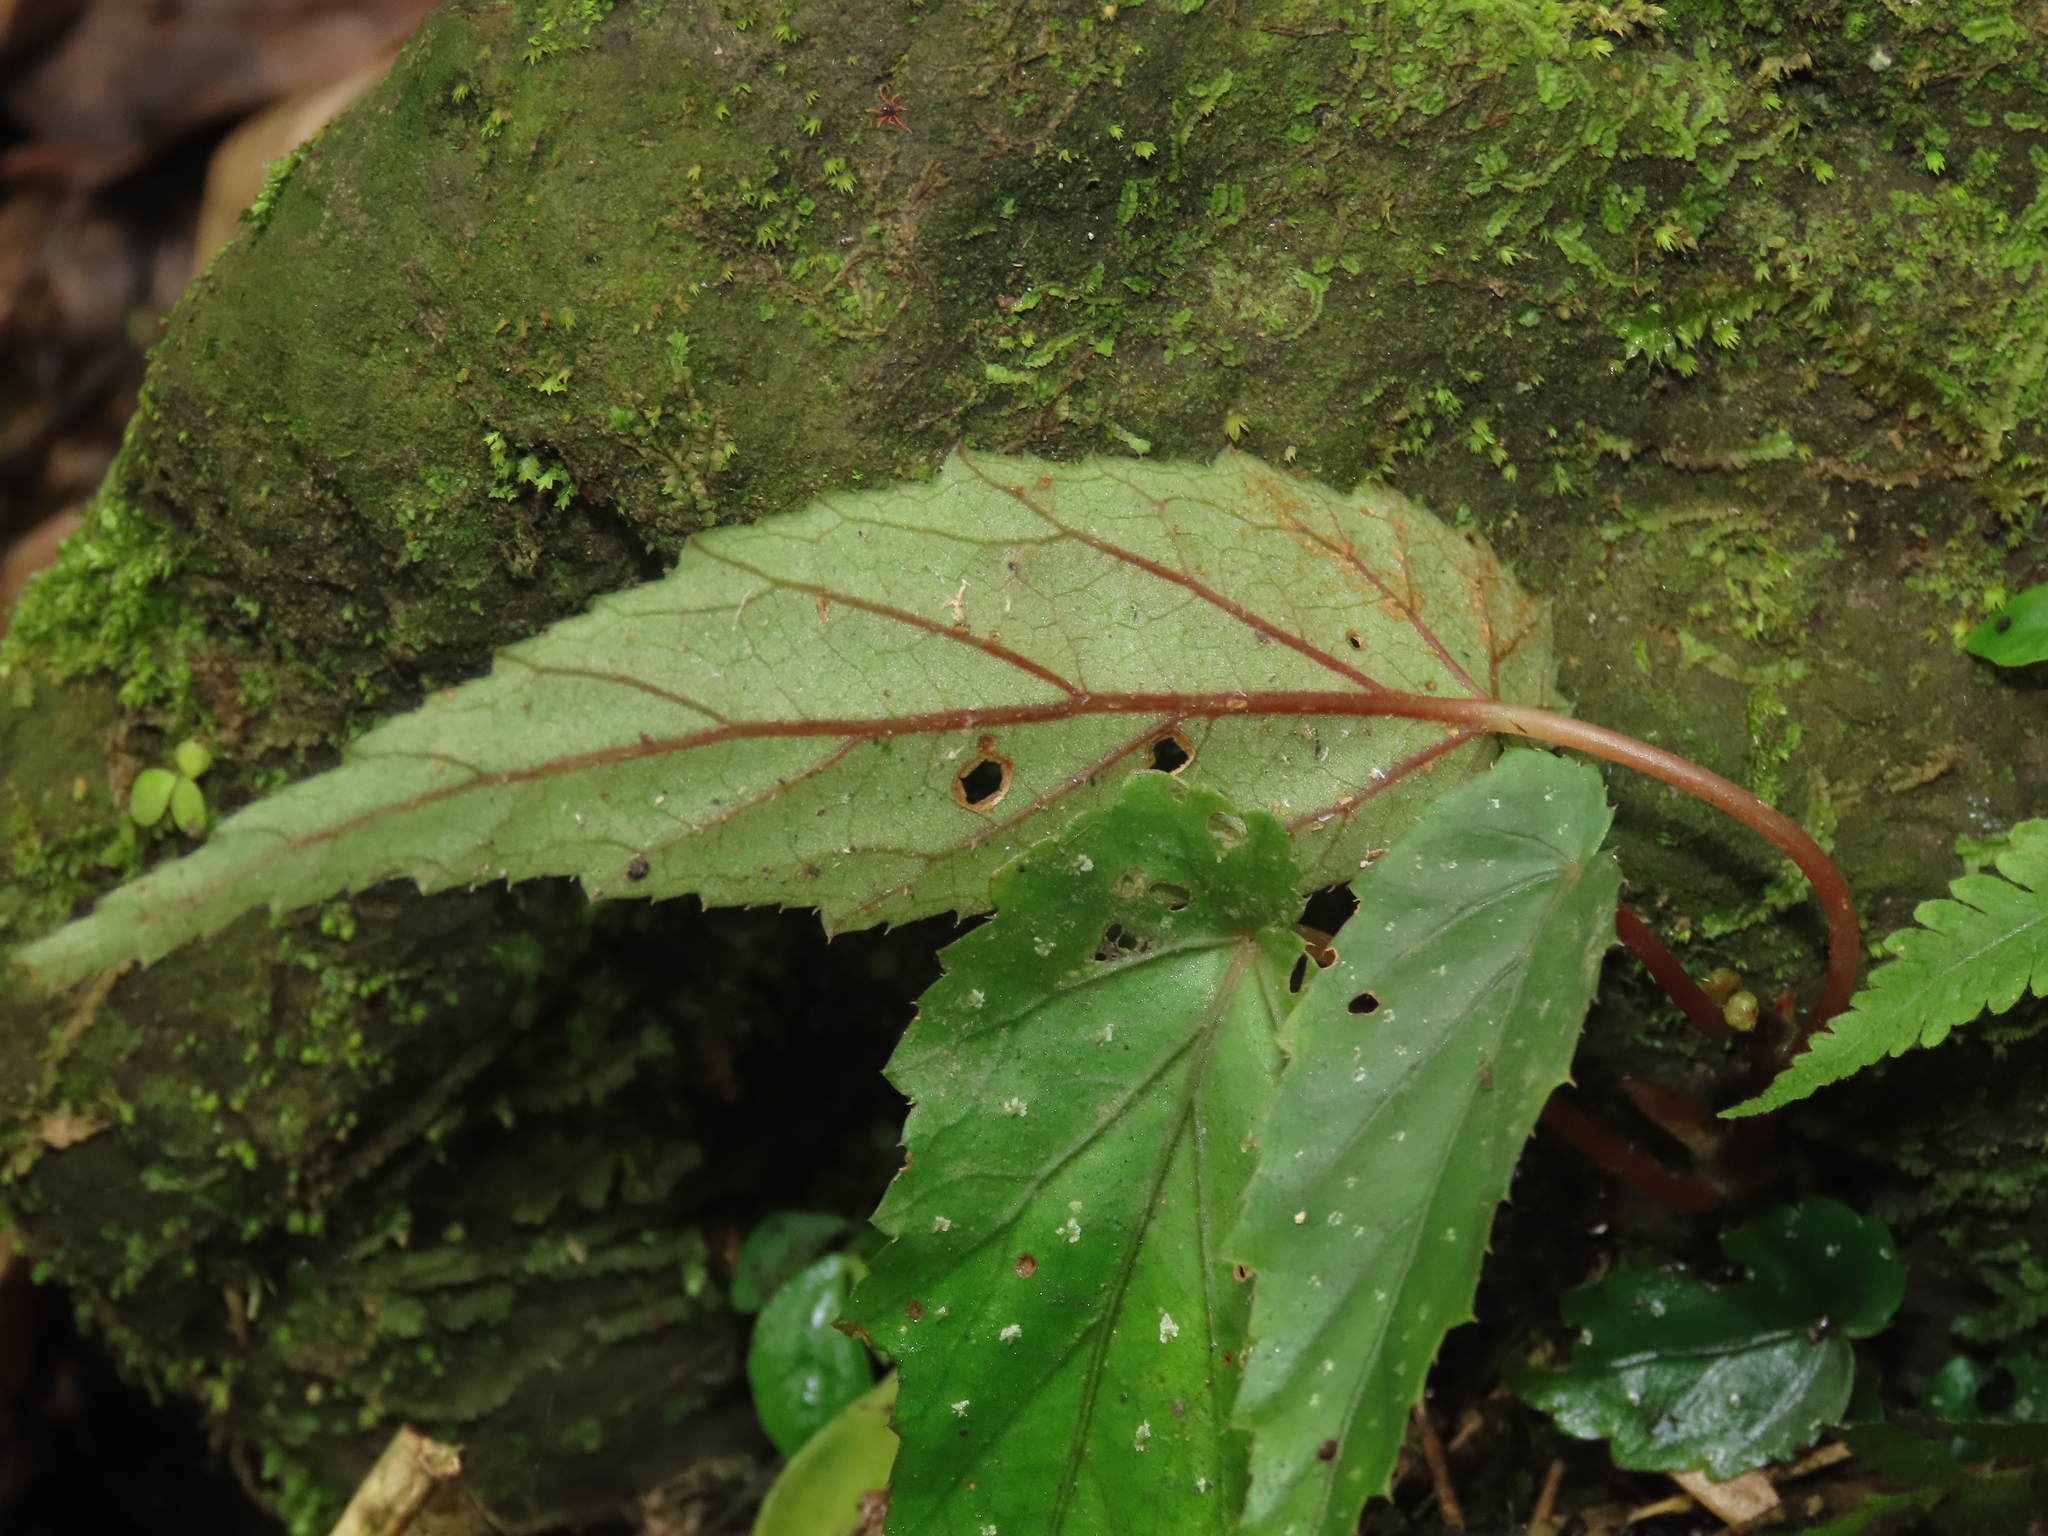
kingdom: Plantae
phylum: Tracheophyta
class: Magnoliopsida
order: Cucurbitales
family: Begoniaceae
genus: Begonia
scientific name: Begonia taiwaniana
